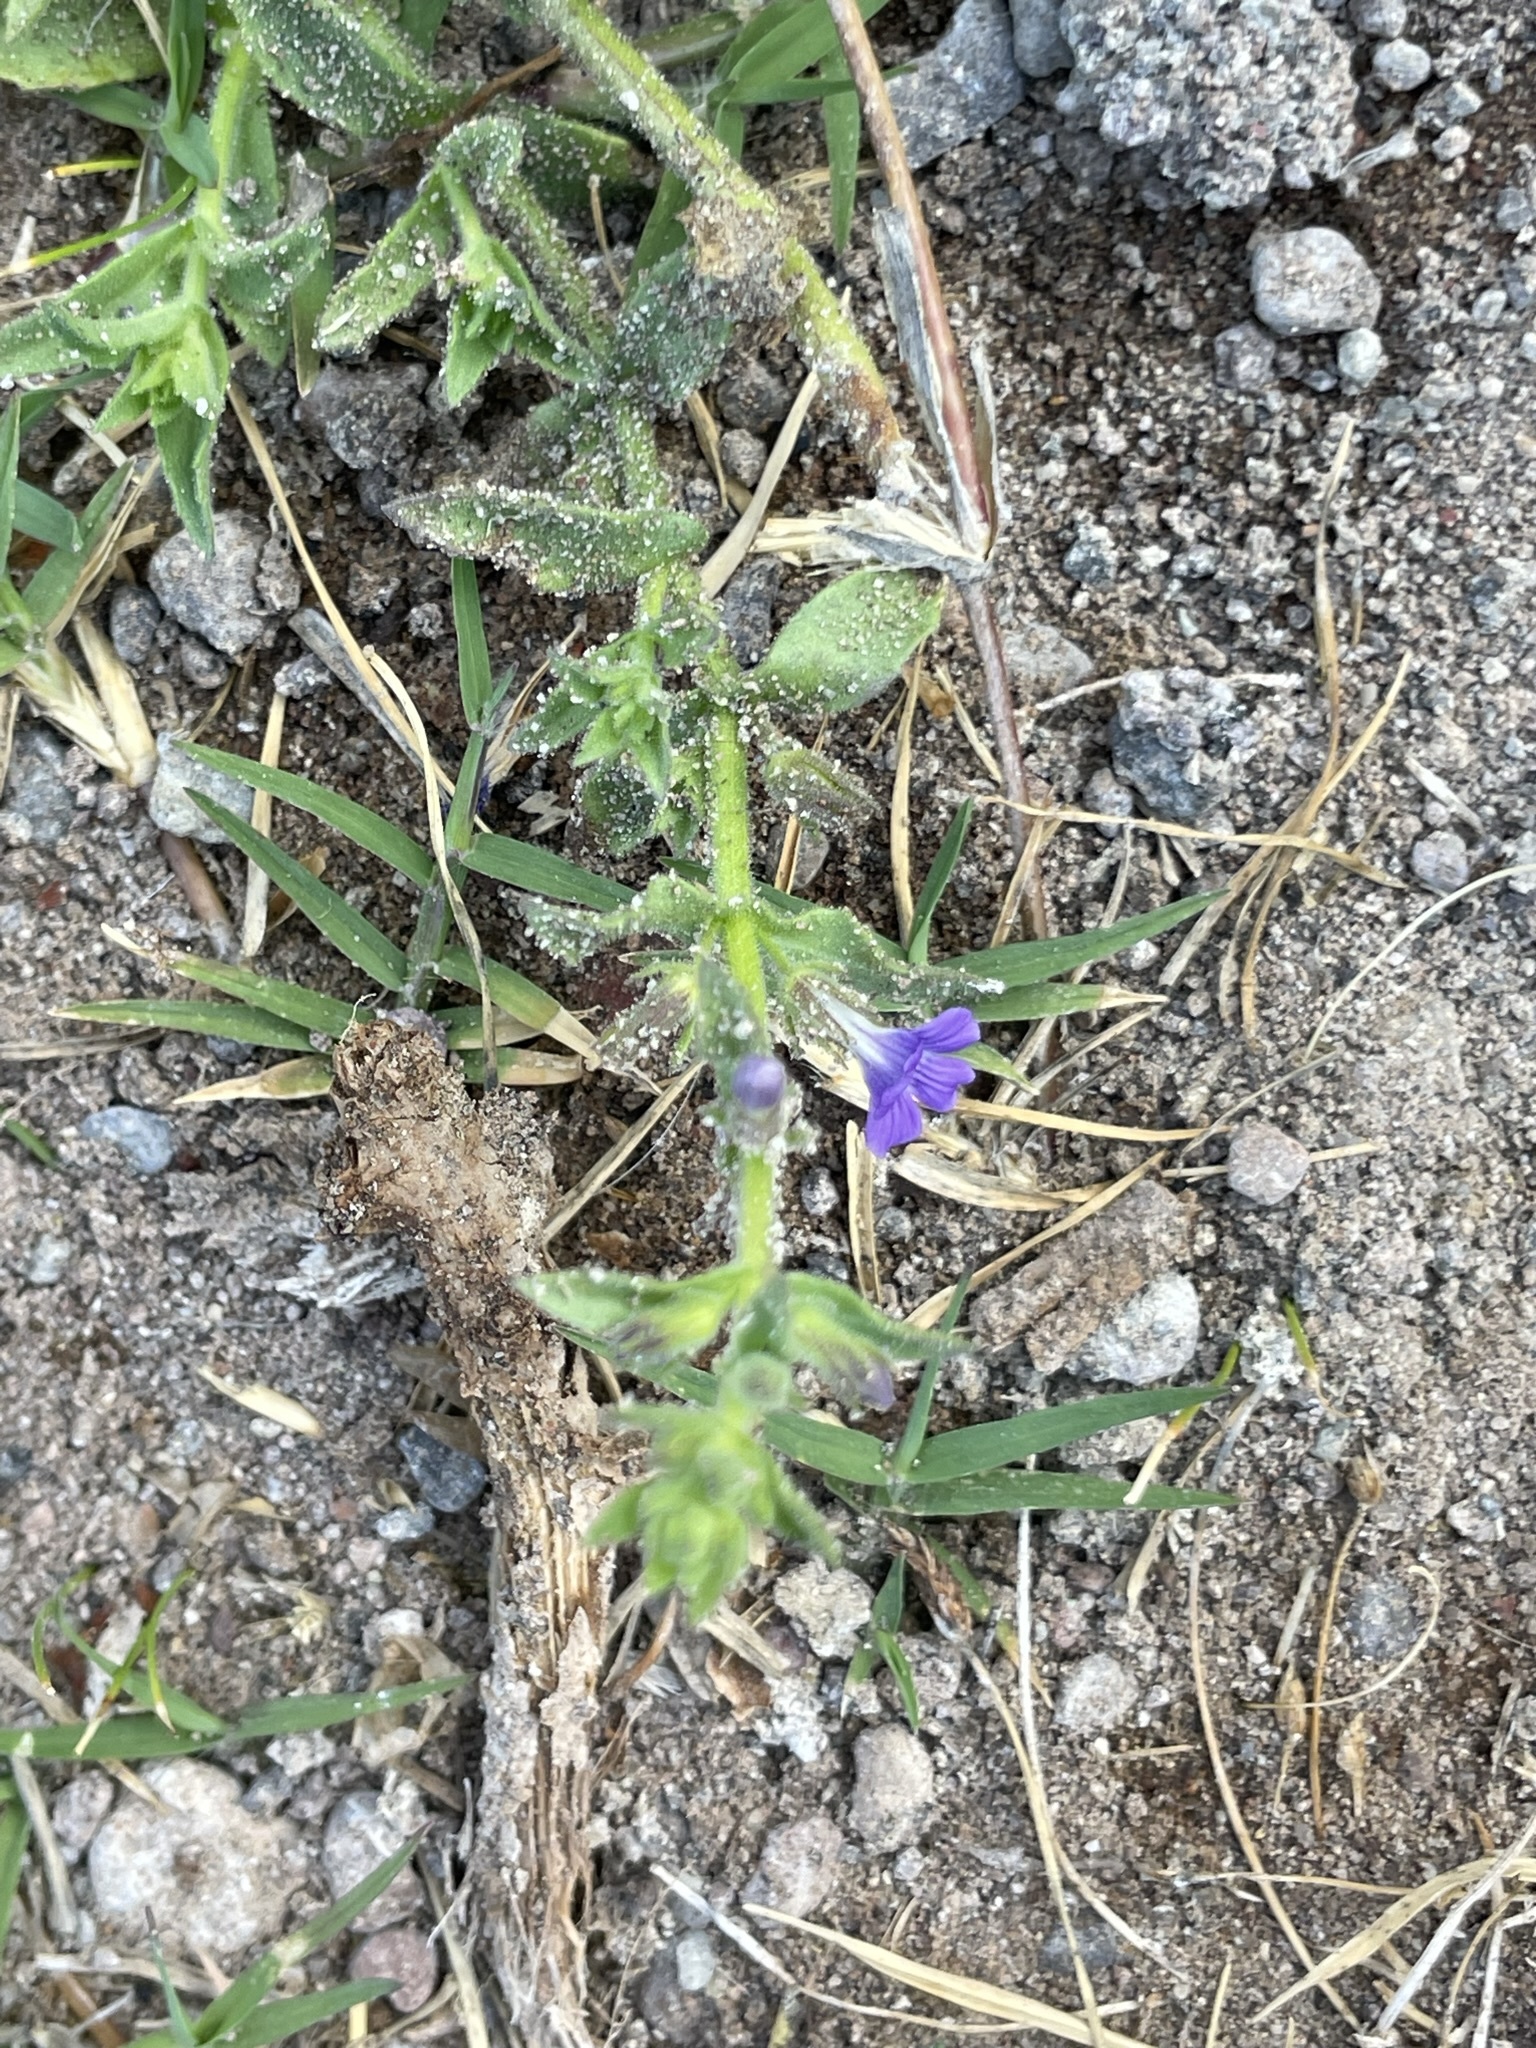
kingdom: Plantae
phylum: Tracheophyta
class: Magnoliopsida
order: Lamiales
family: Plantaginaceae
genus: Stemodia
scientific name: Stemodia durantifolia
